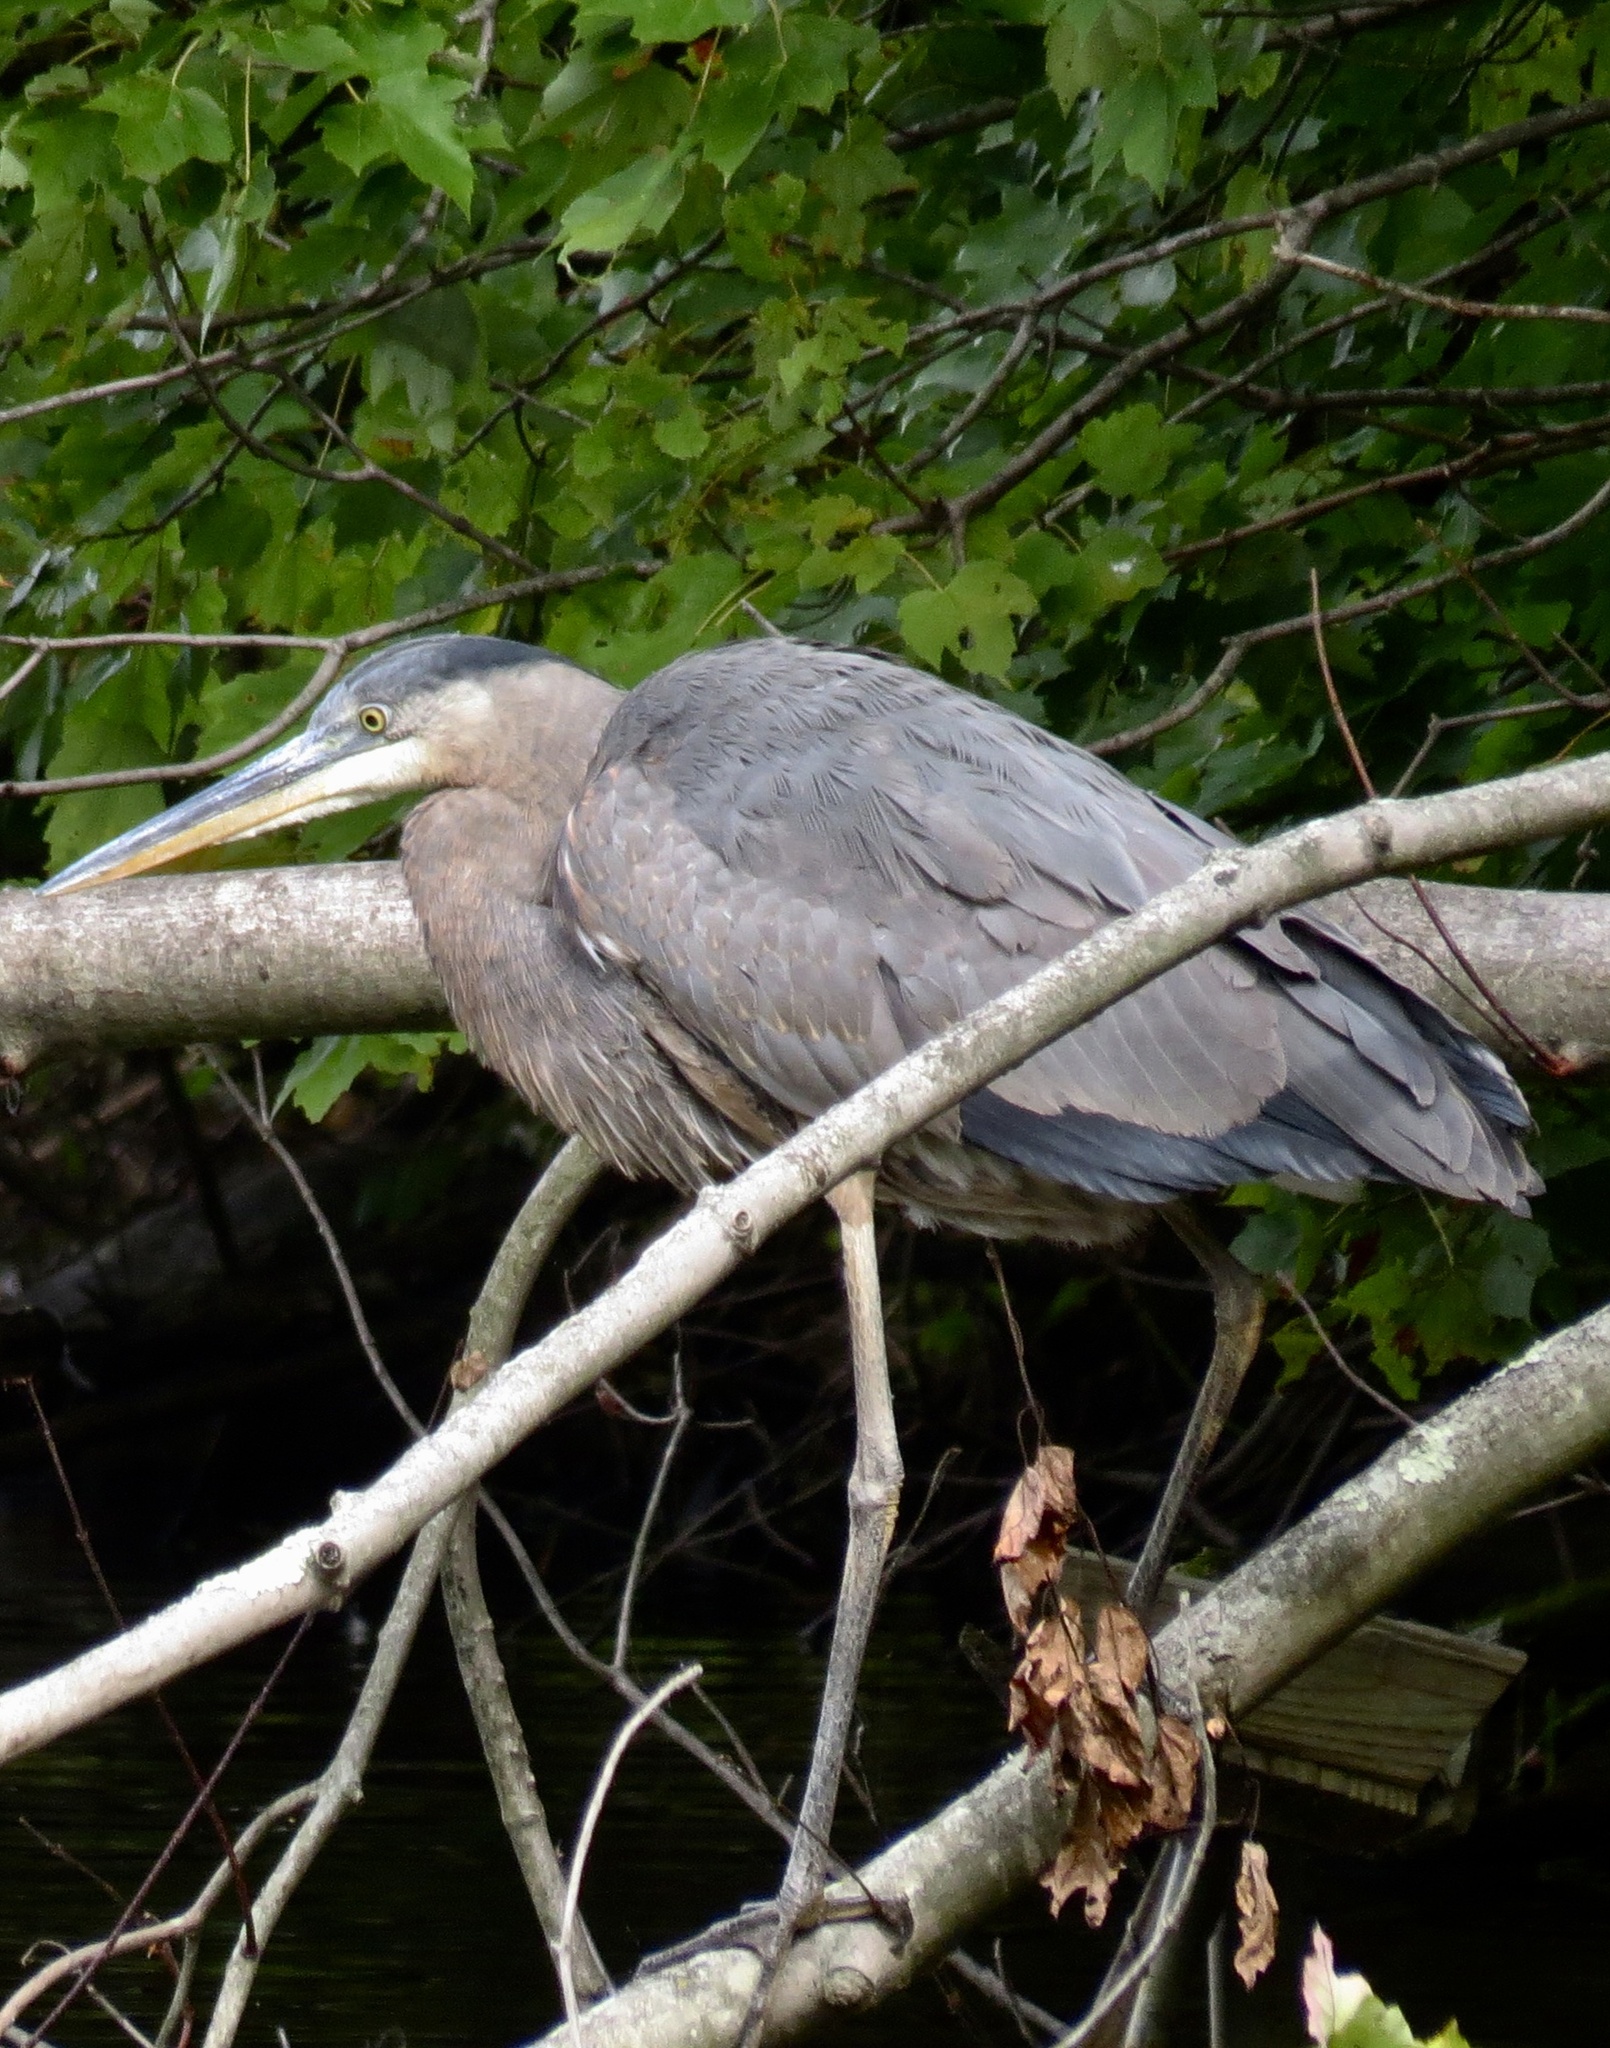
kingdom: Animalia
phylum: Chordata
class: Aves
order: Pelecaniformes
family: Ardeidae
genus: Ardea
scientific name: Ardea herodias
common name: Great blue heron
